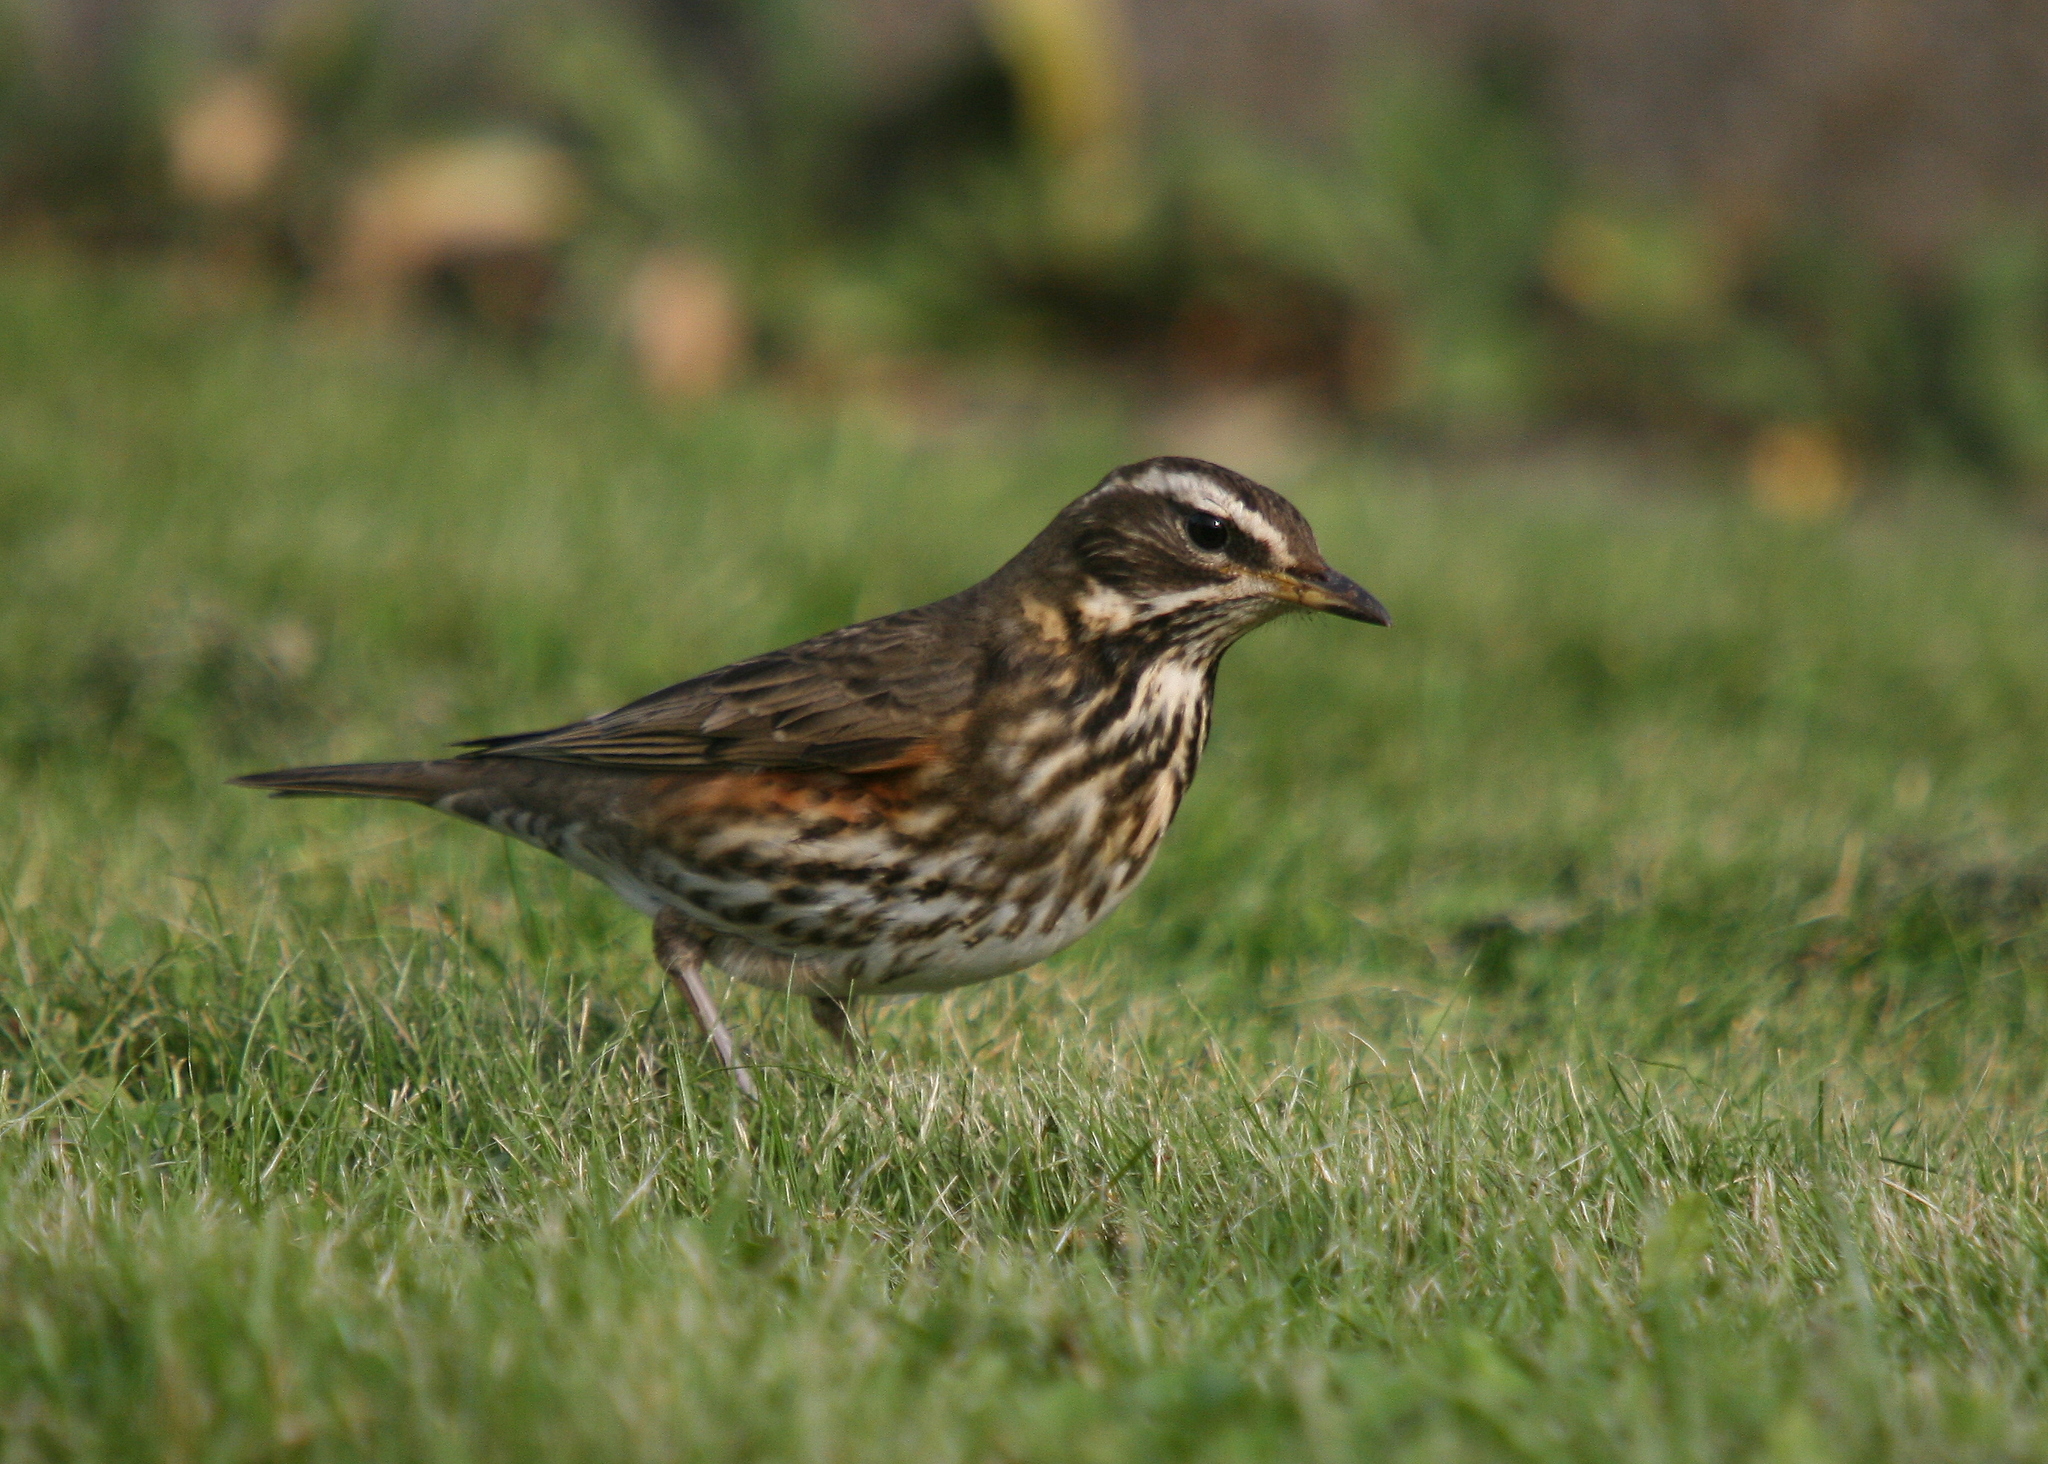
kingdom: Animalia
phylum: Chordata
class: Aves
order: Passeriformes
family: Turdidae
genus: Turdus
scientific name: Turdus iliacus
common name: Redwing
